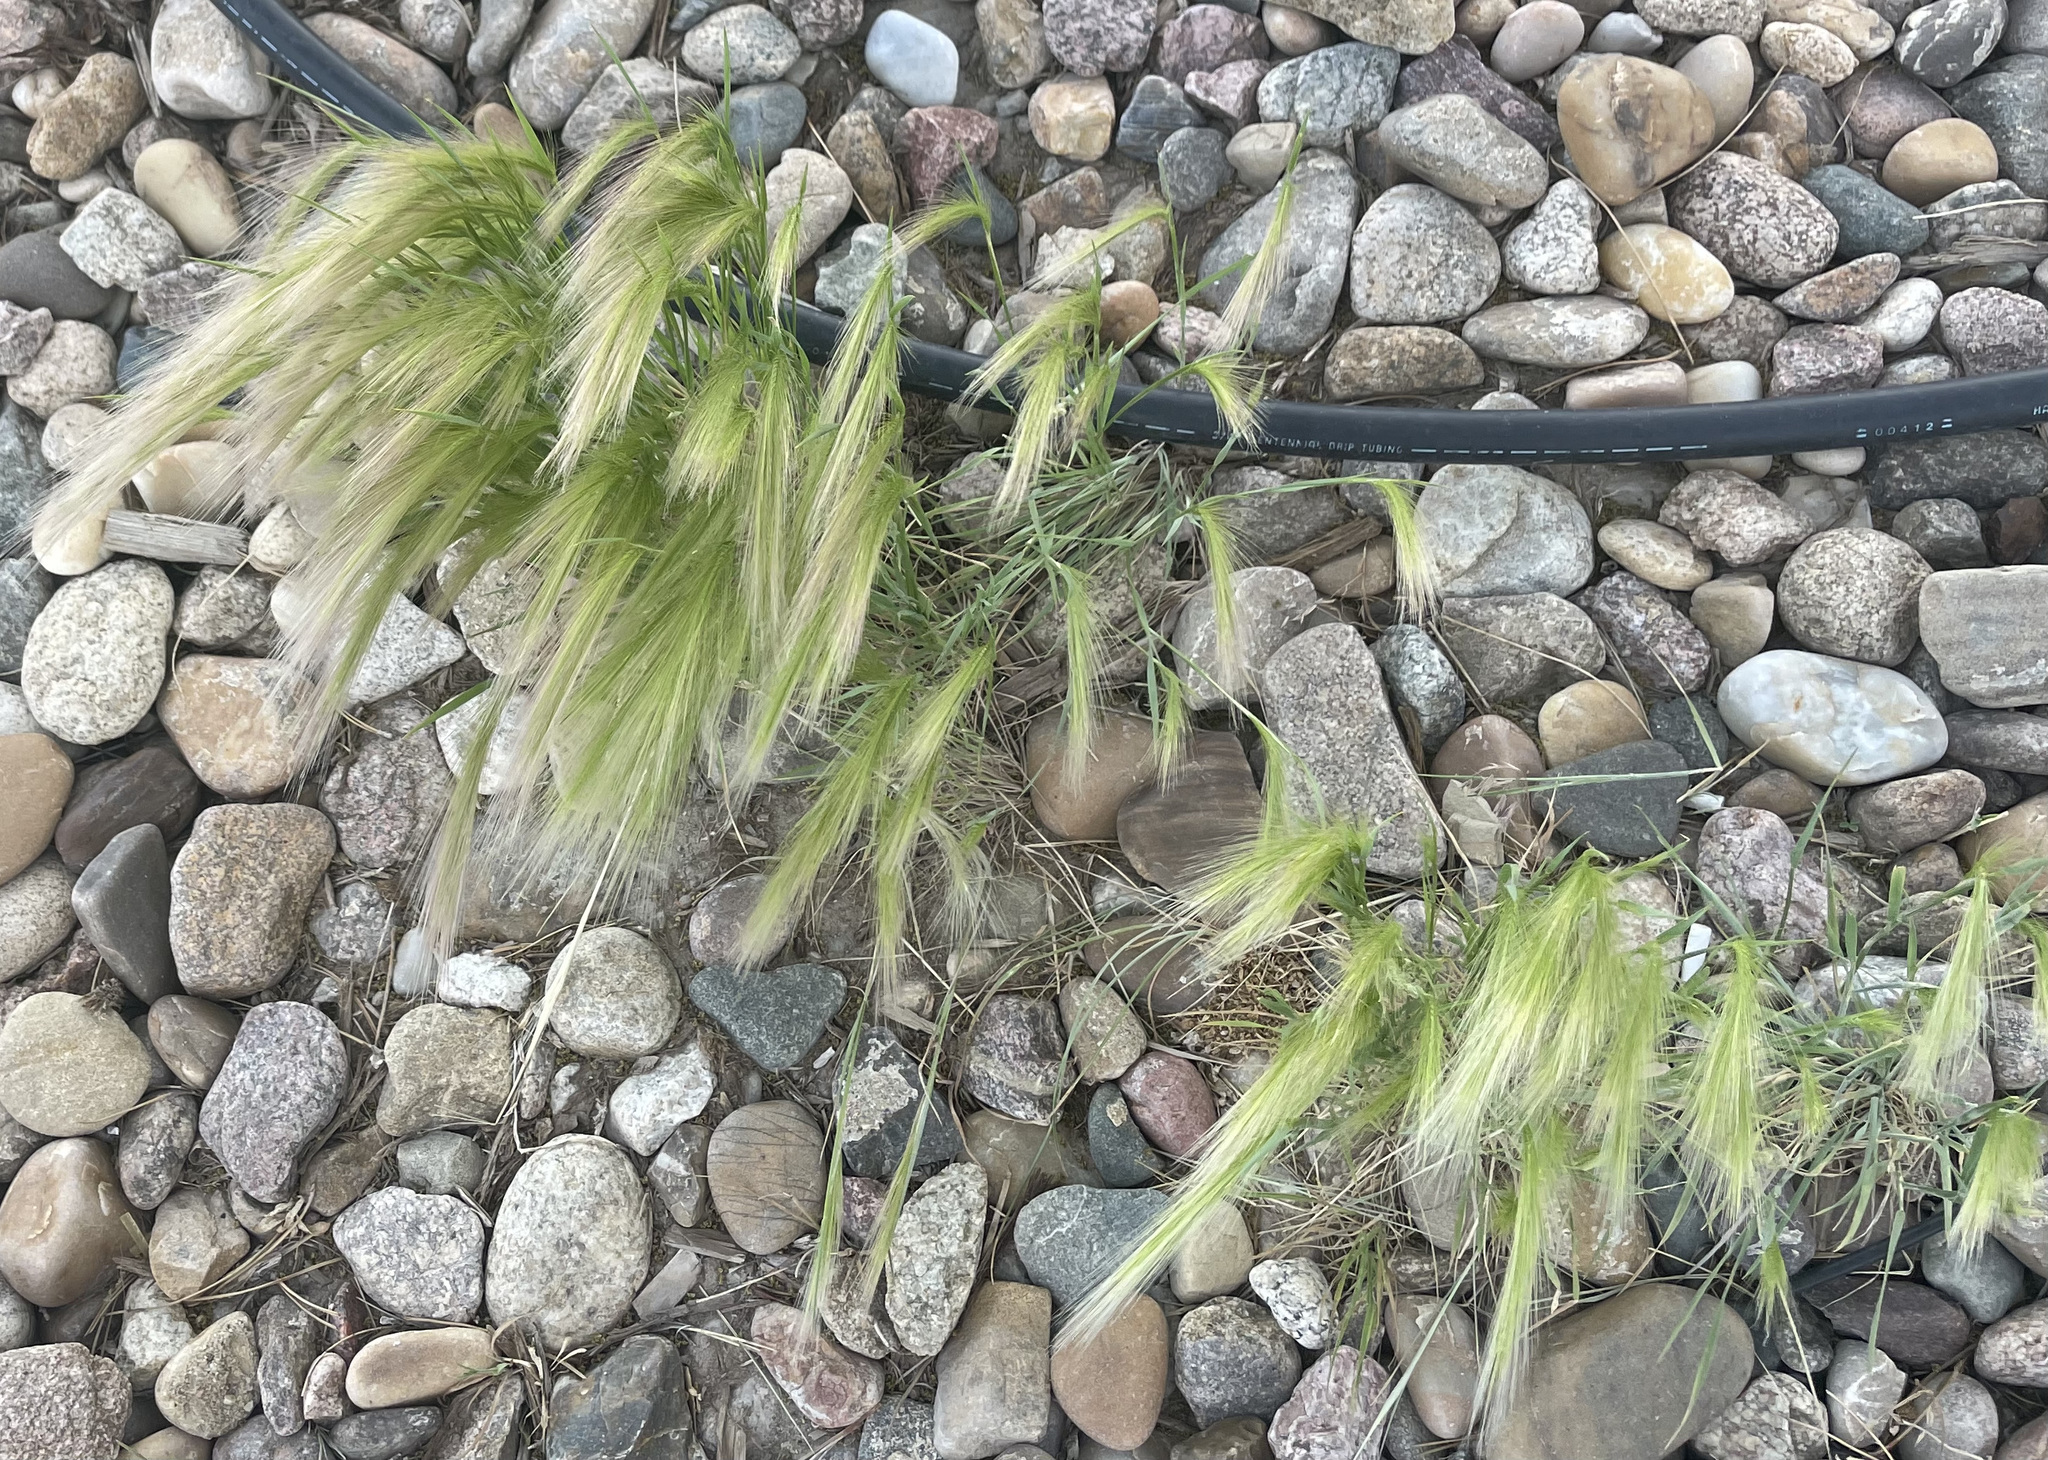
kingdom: Plantae
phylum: Tracheophyta
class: Liliopsida
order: Poales
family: Poaceae
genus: Hordeum
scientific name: Hordeum jubatum
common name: Foxtail barley
